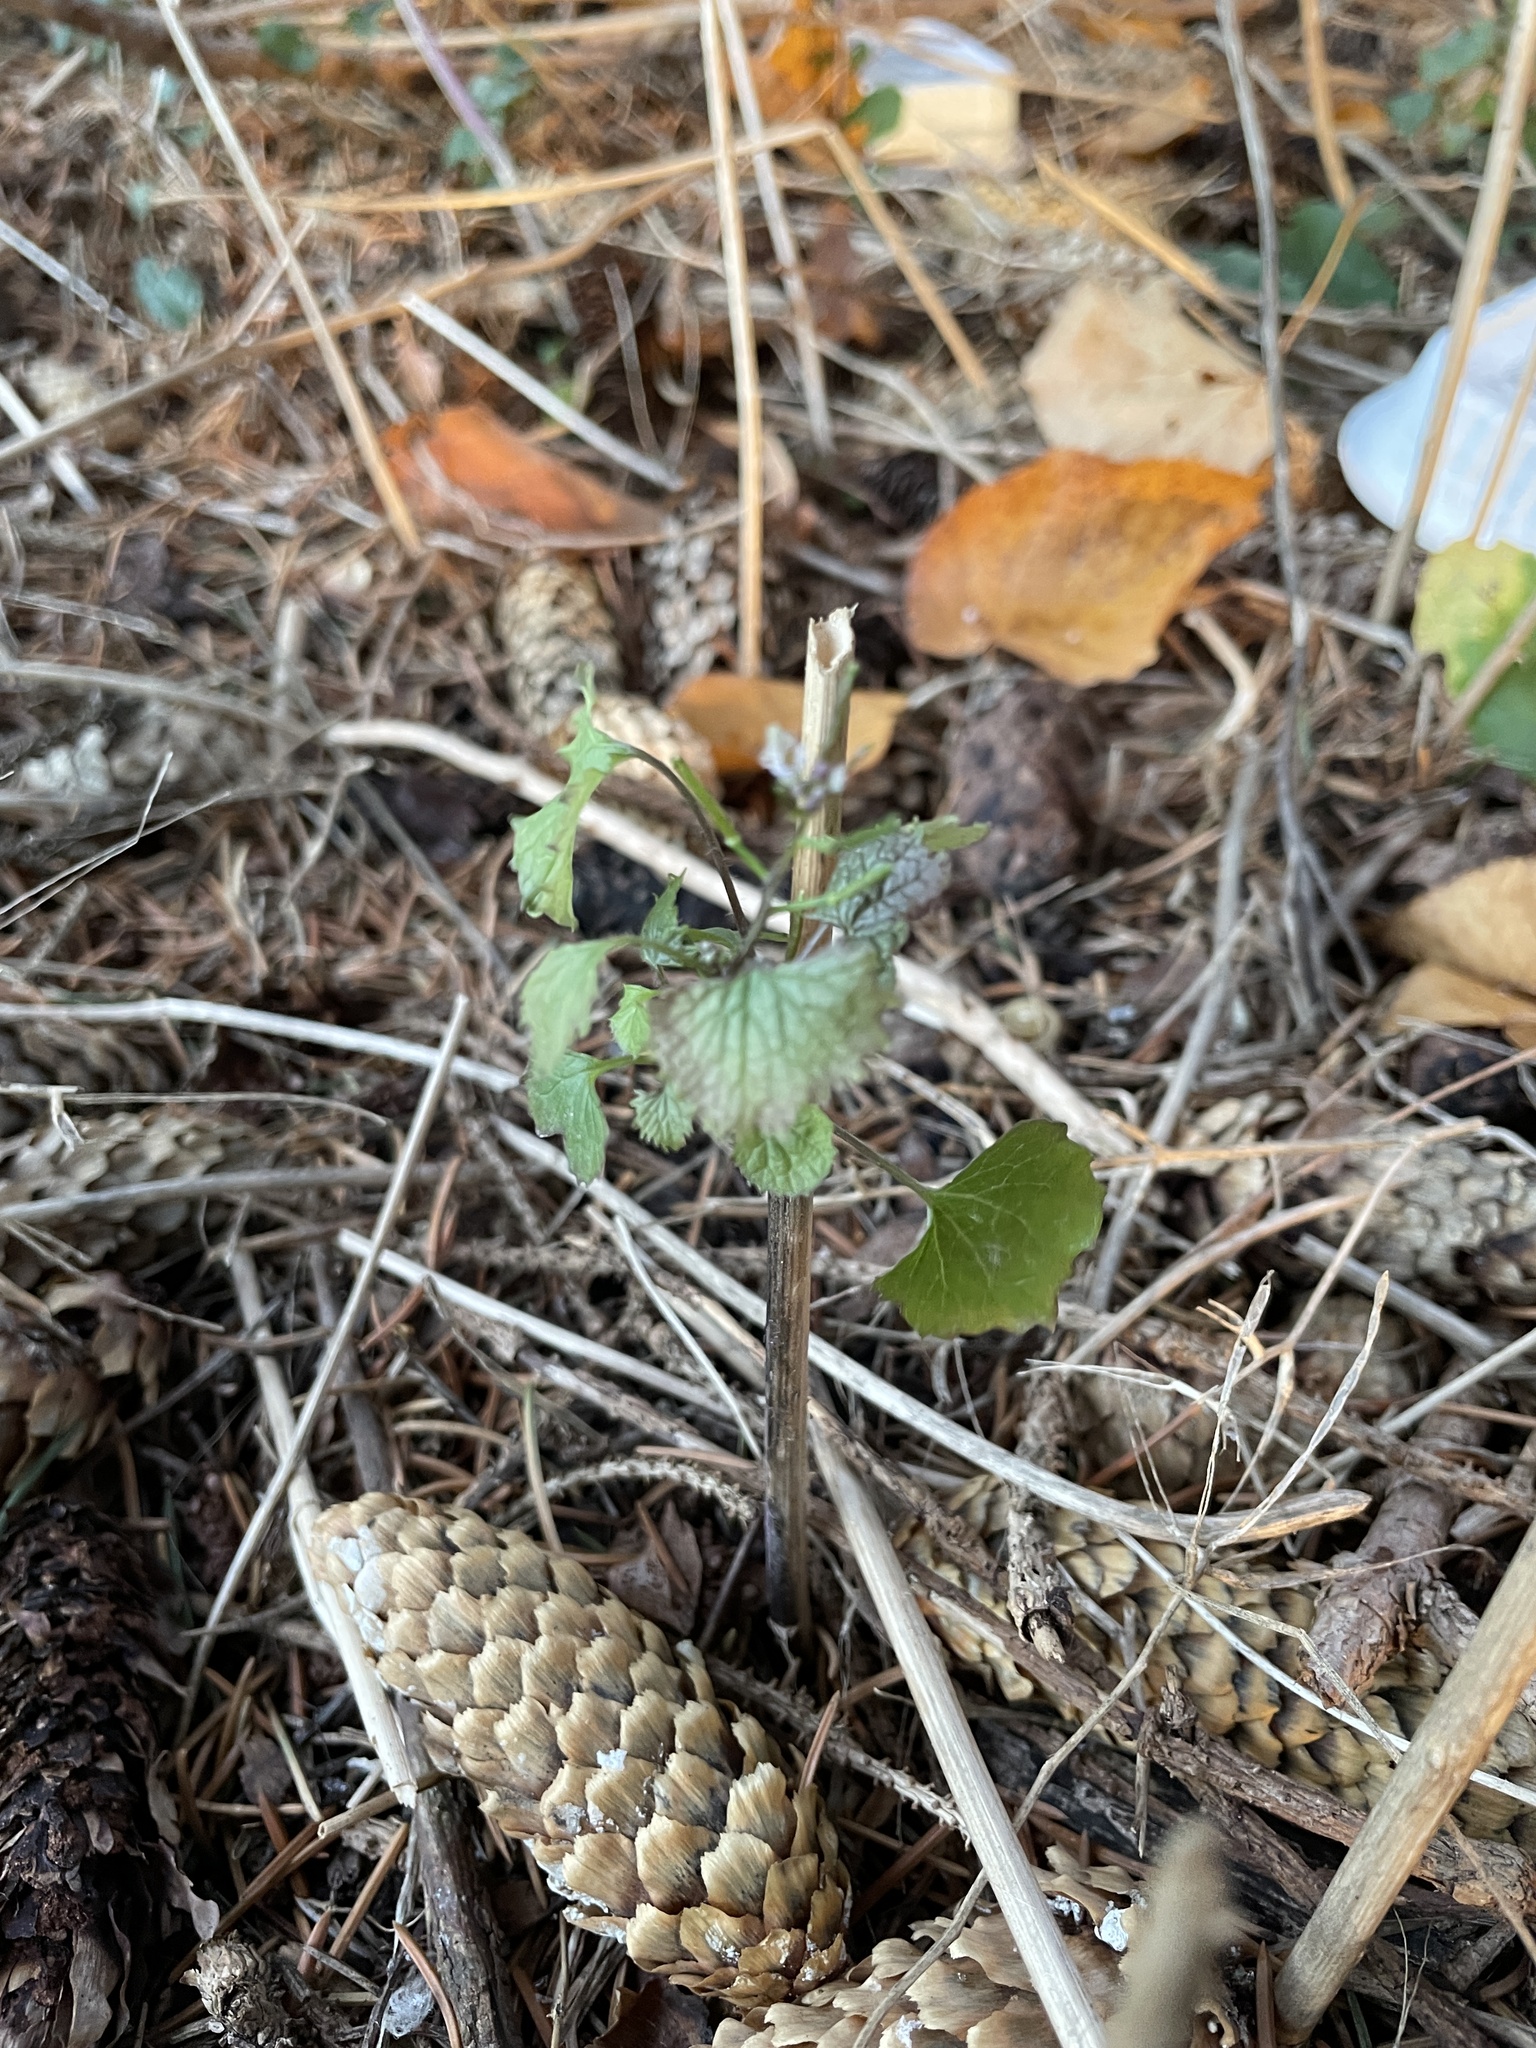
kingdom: Plantae
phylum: Tracheophyta
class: Magnoliopsida
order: Brassicales
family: Brassicaceae
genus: Alliaria
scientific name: Alliaria petiolata
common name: Garlic mustard
